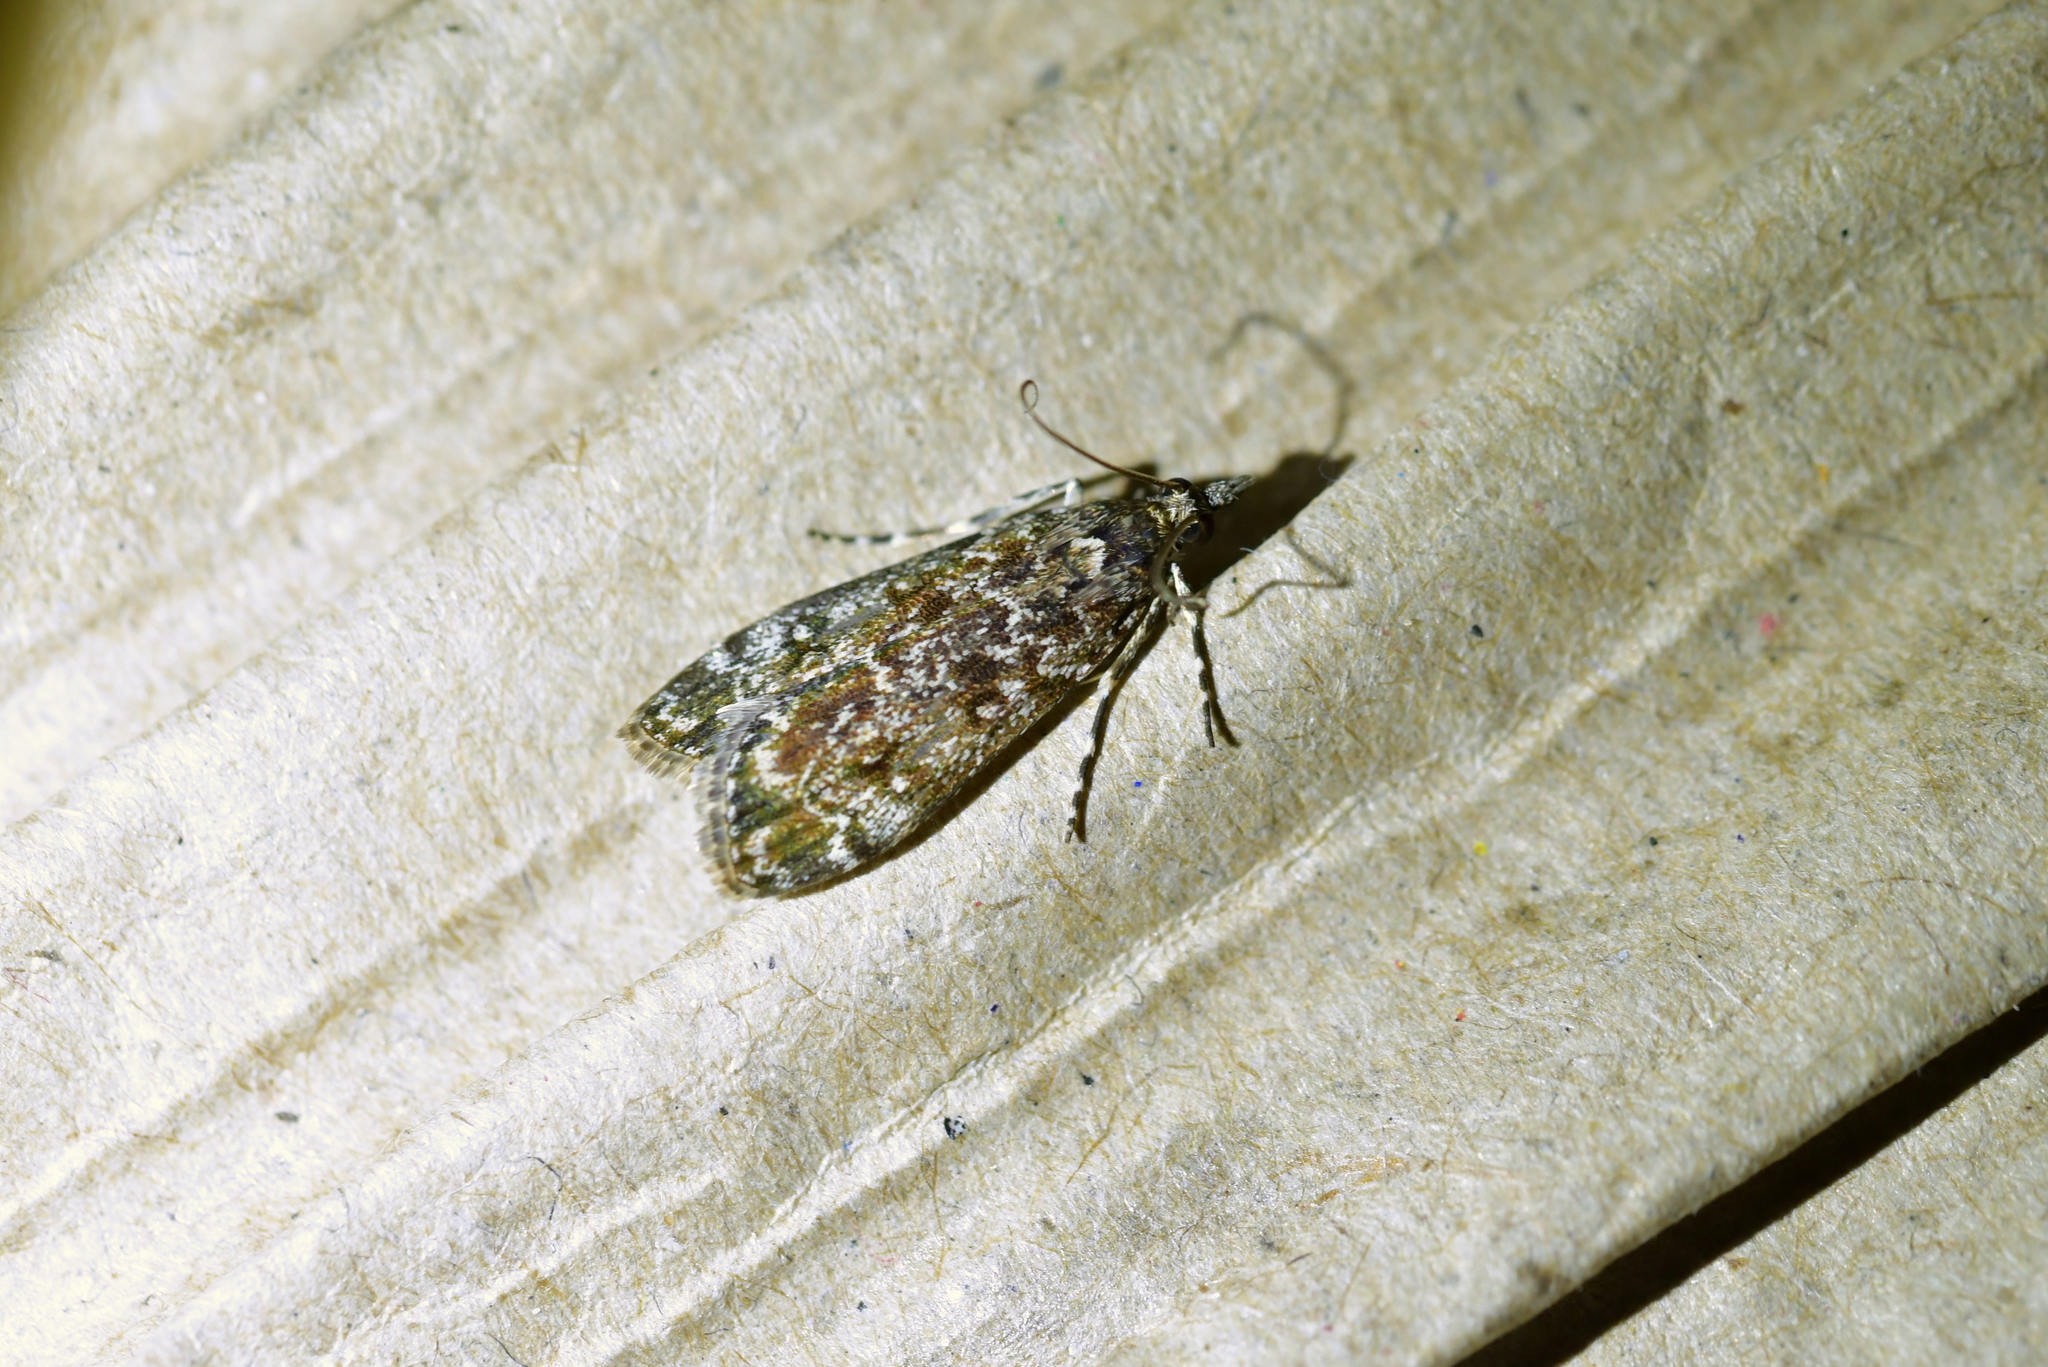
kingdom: Animalia
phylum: Arthropoda
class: Insecta
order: Lepidoptera
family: Crambidae
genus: Eudonia
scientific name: Eudonia philerga
